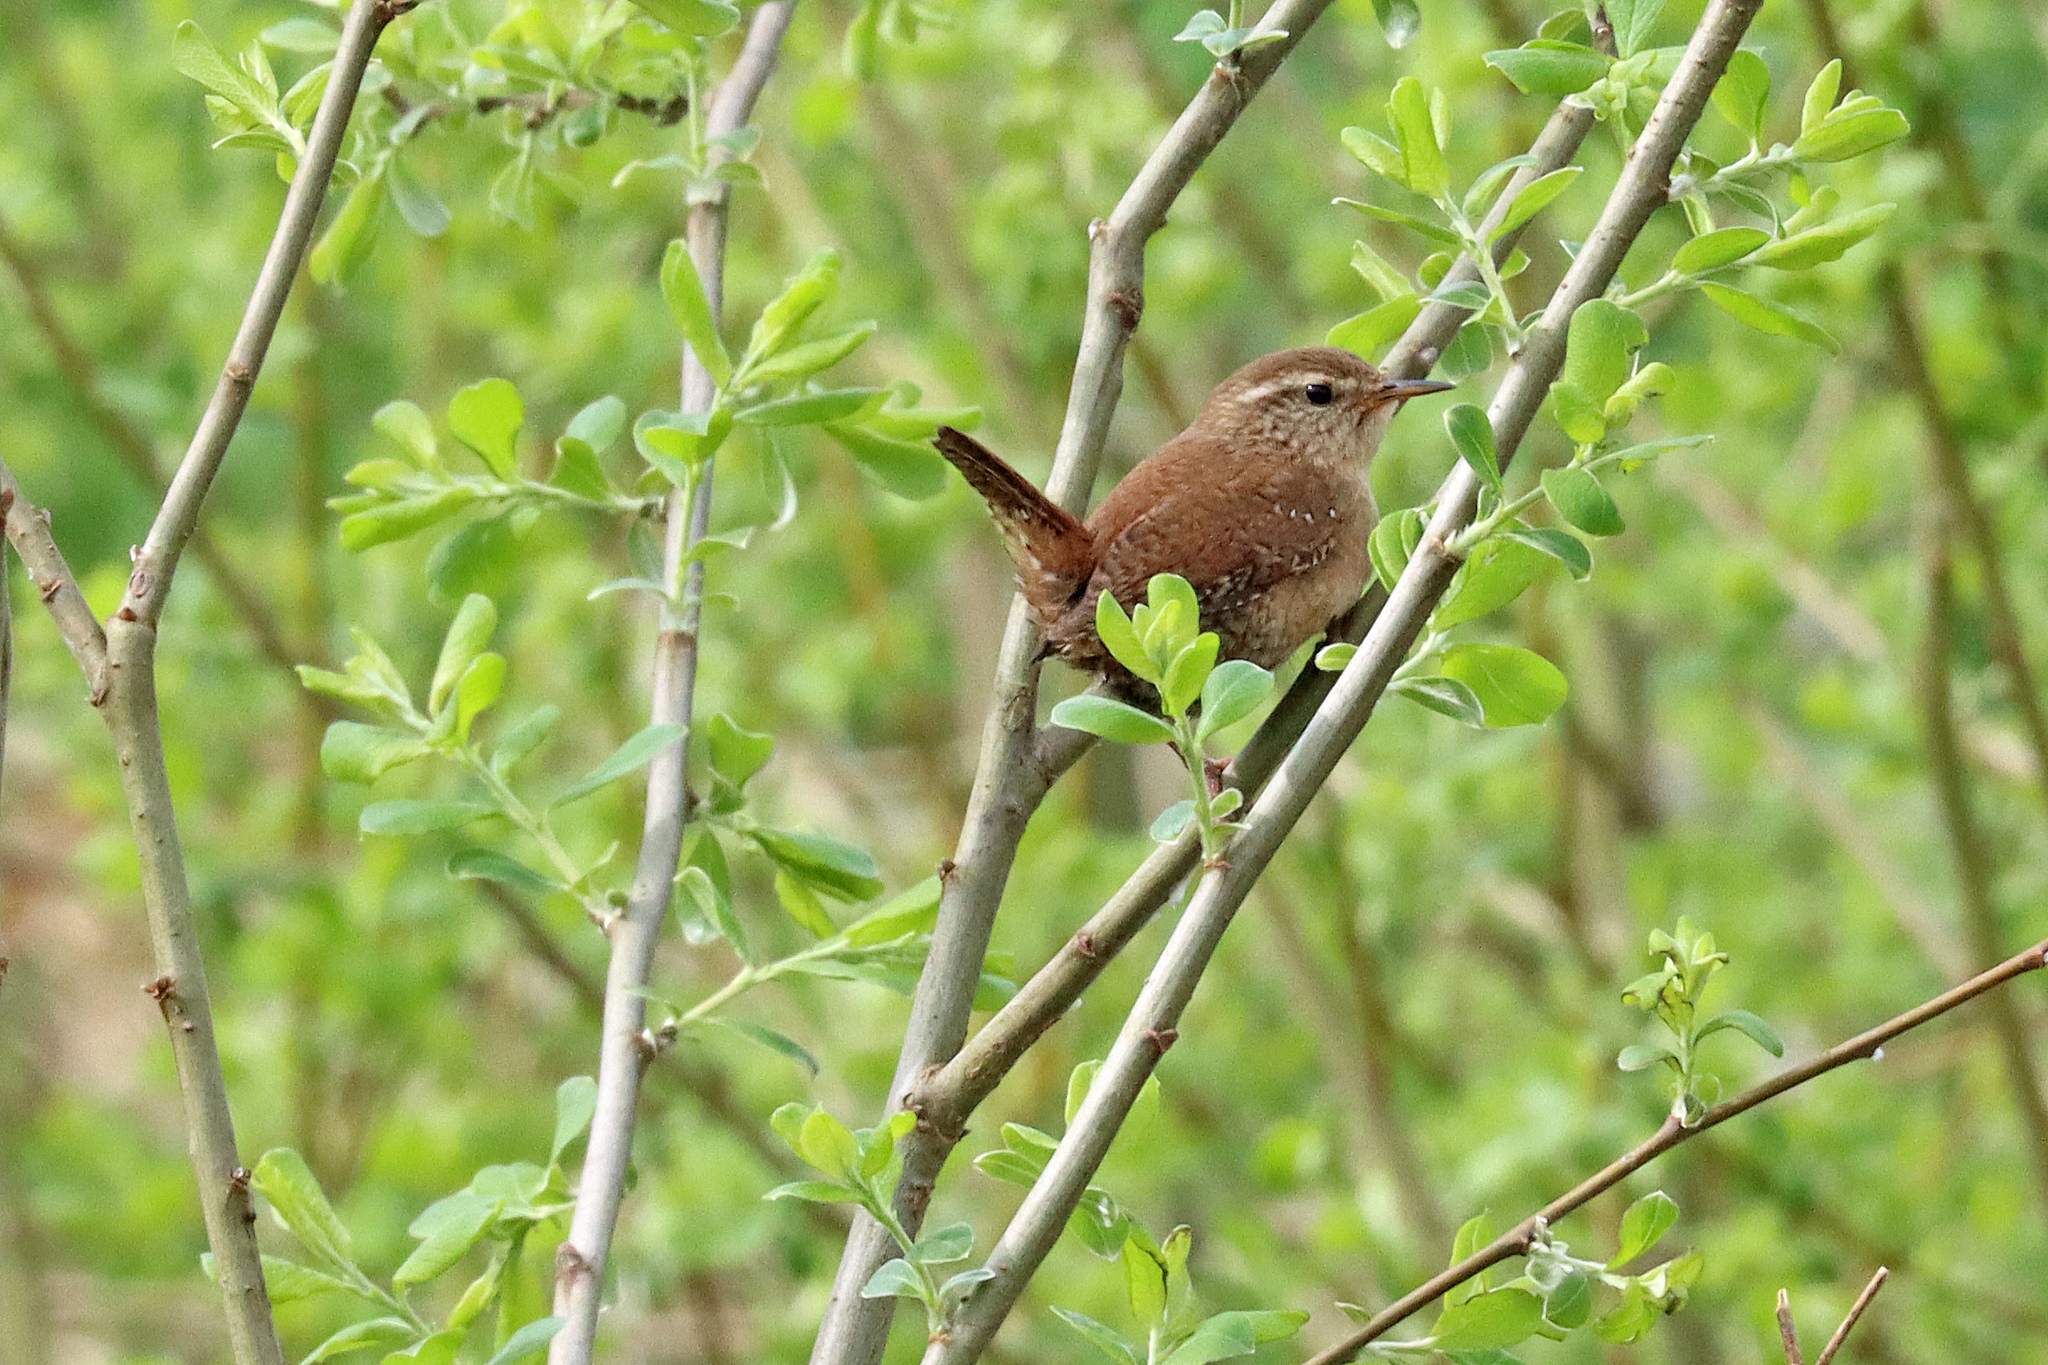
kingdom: Animalia
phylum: Chordata
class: Aves
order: Passeriformes
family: Troglodytidae
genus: Troglodytes
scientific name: Troglodytes troglodytes
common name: Eurasian wren
